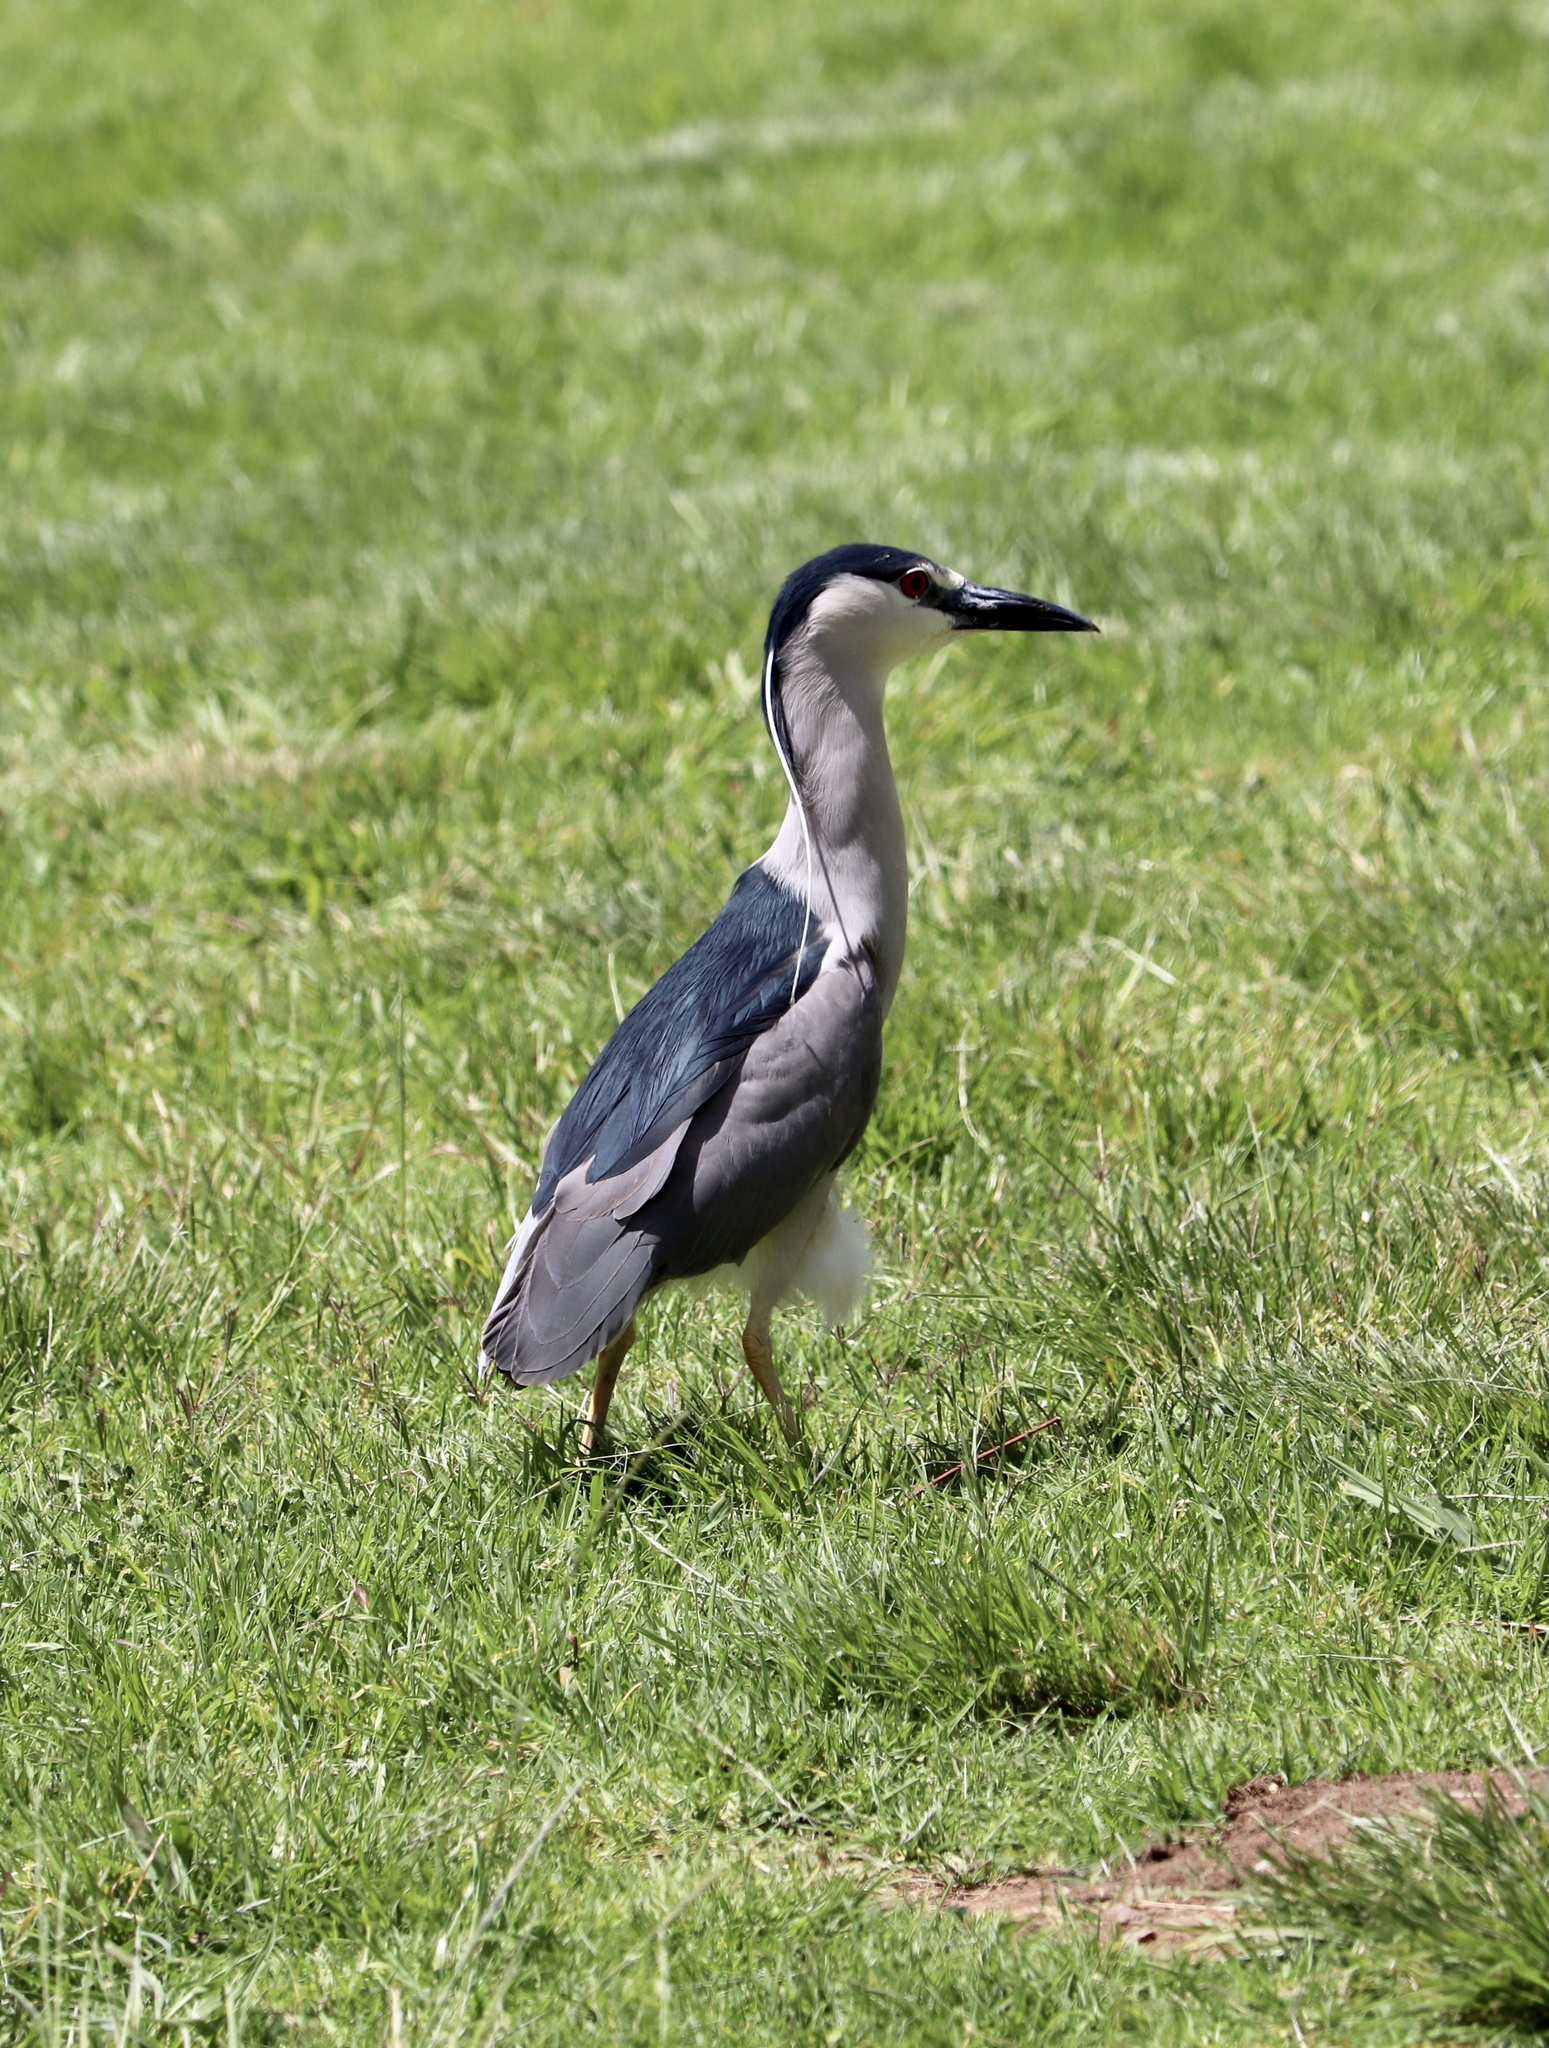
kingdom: Animalia
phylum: Chordata
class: Aves
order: Pelecaniformes
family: Ardeidae
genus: Nycticorax
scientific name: Nycticorax nycticorax
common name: Black-crowned night heron
